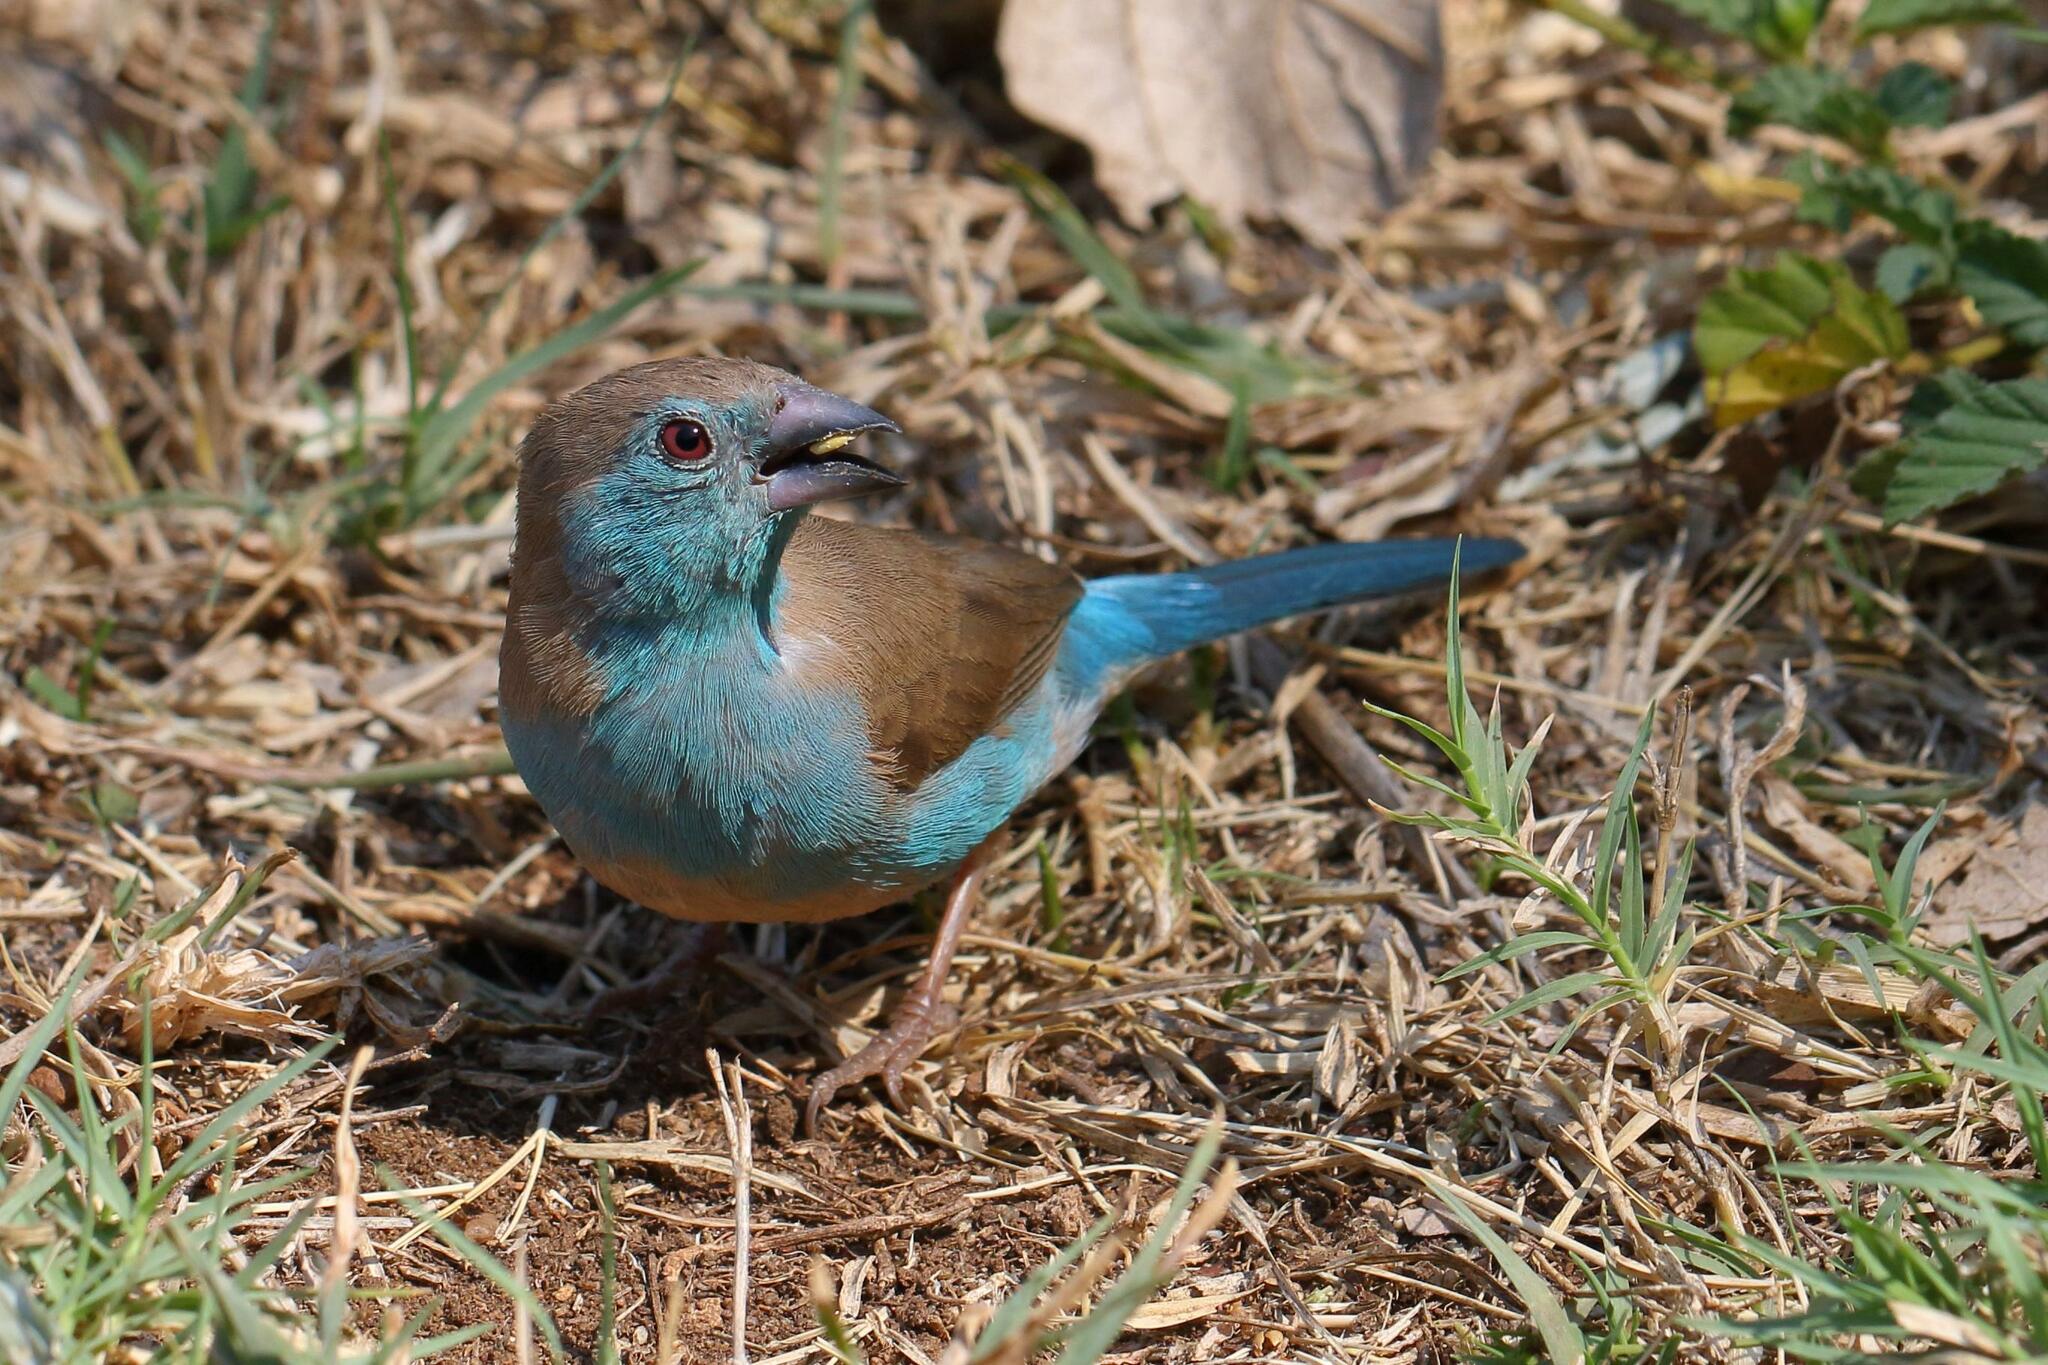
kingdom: Animalia
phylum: Chordata
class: Aves
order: Passeriformes
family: Estrildidae
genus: Uraeginthus
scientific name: Uraeginthus angolensis
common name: Blue waxbill
